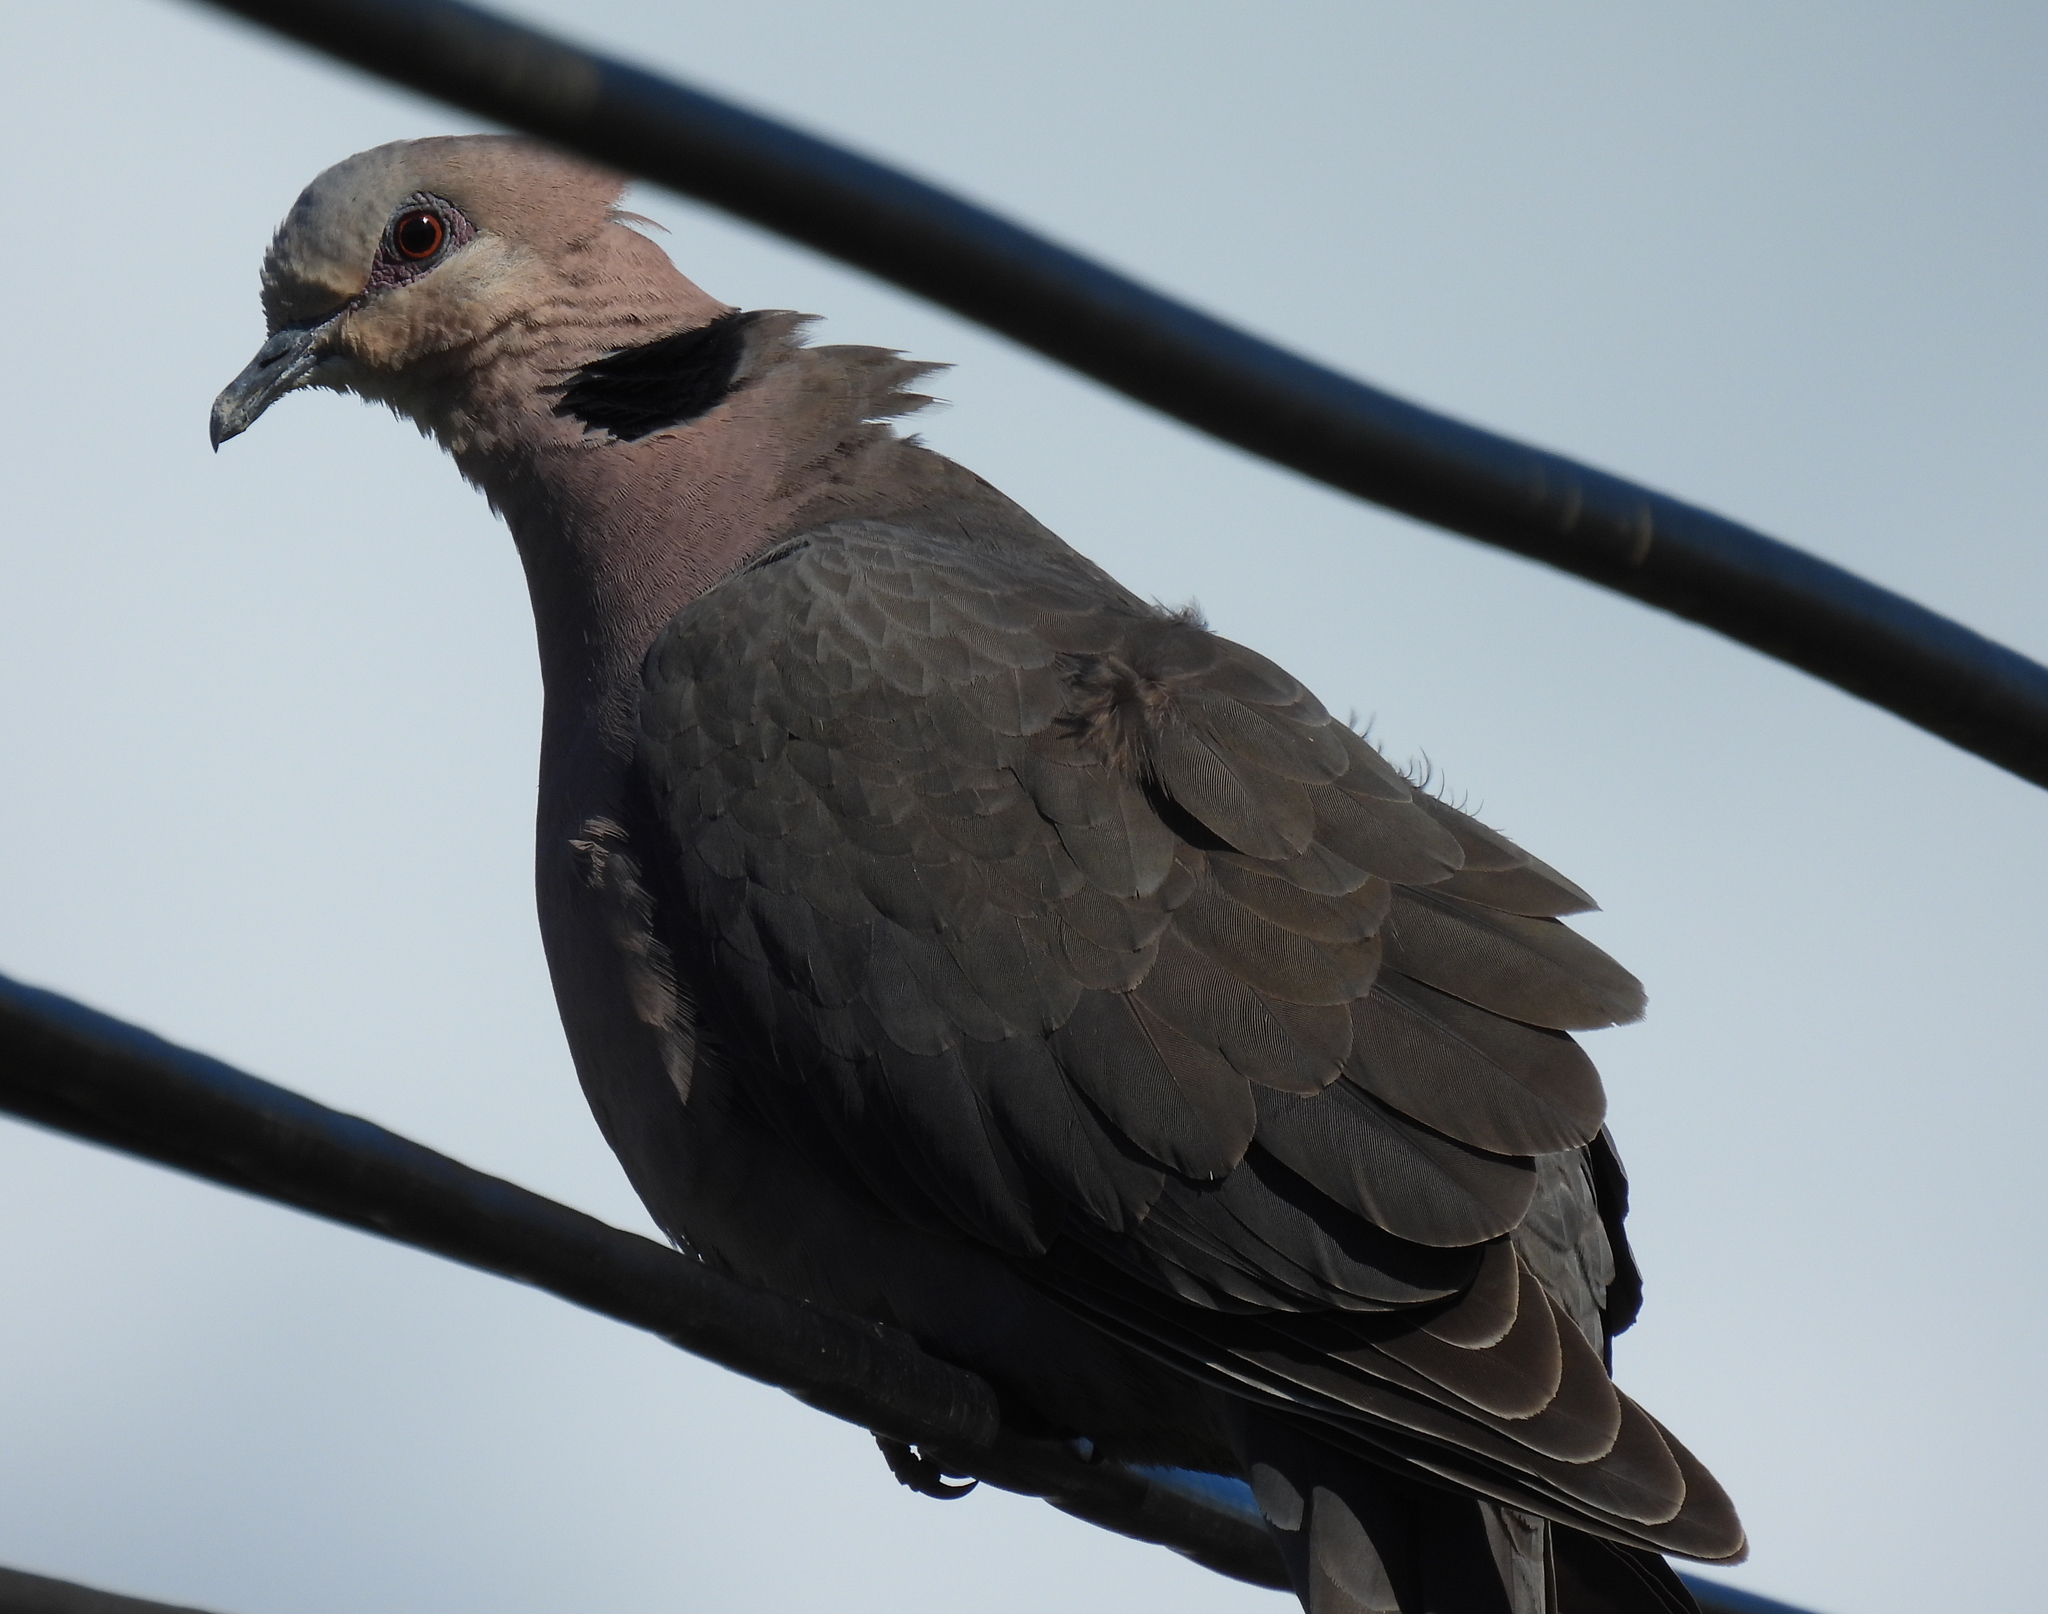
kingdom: Animalia
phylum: Chordata
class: Aves
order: Columbiformes
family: Columbidae
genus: Streptopelia
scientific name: Streptopelia semitorquata
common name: Red-eyed dove
